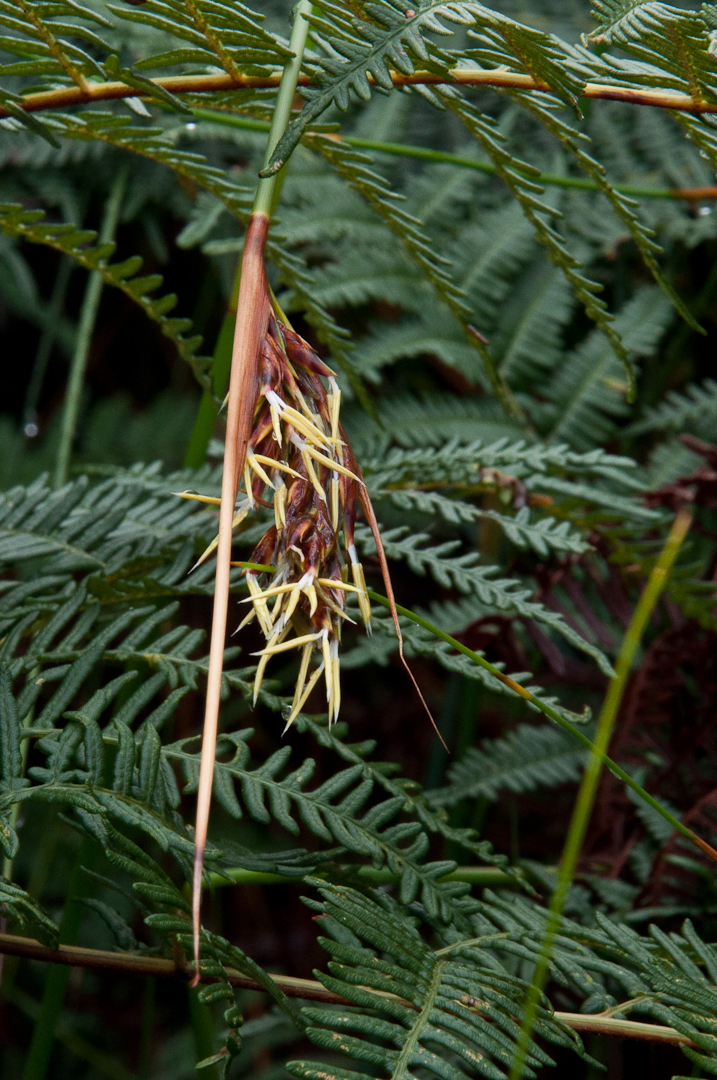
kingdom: Plantae
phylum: Tracheophyta
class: Liliopsida
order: Poales
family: Cyperaceae
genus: Neesenbeckia
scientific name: Neesenbeckia punctoria
